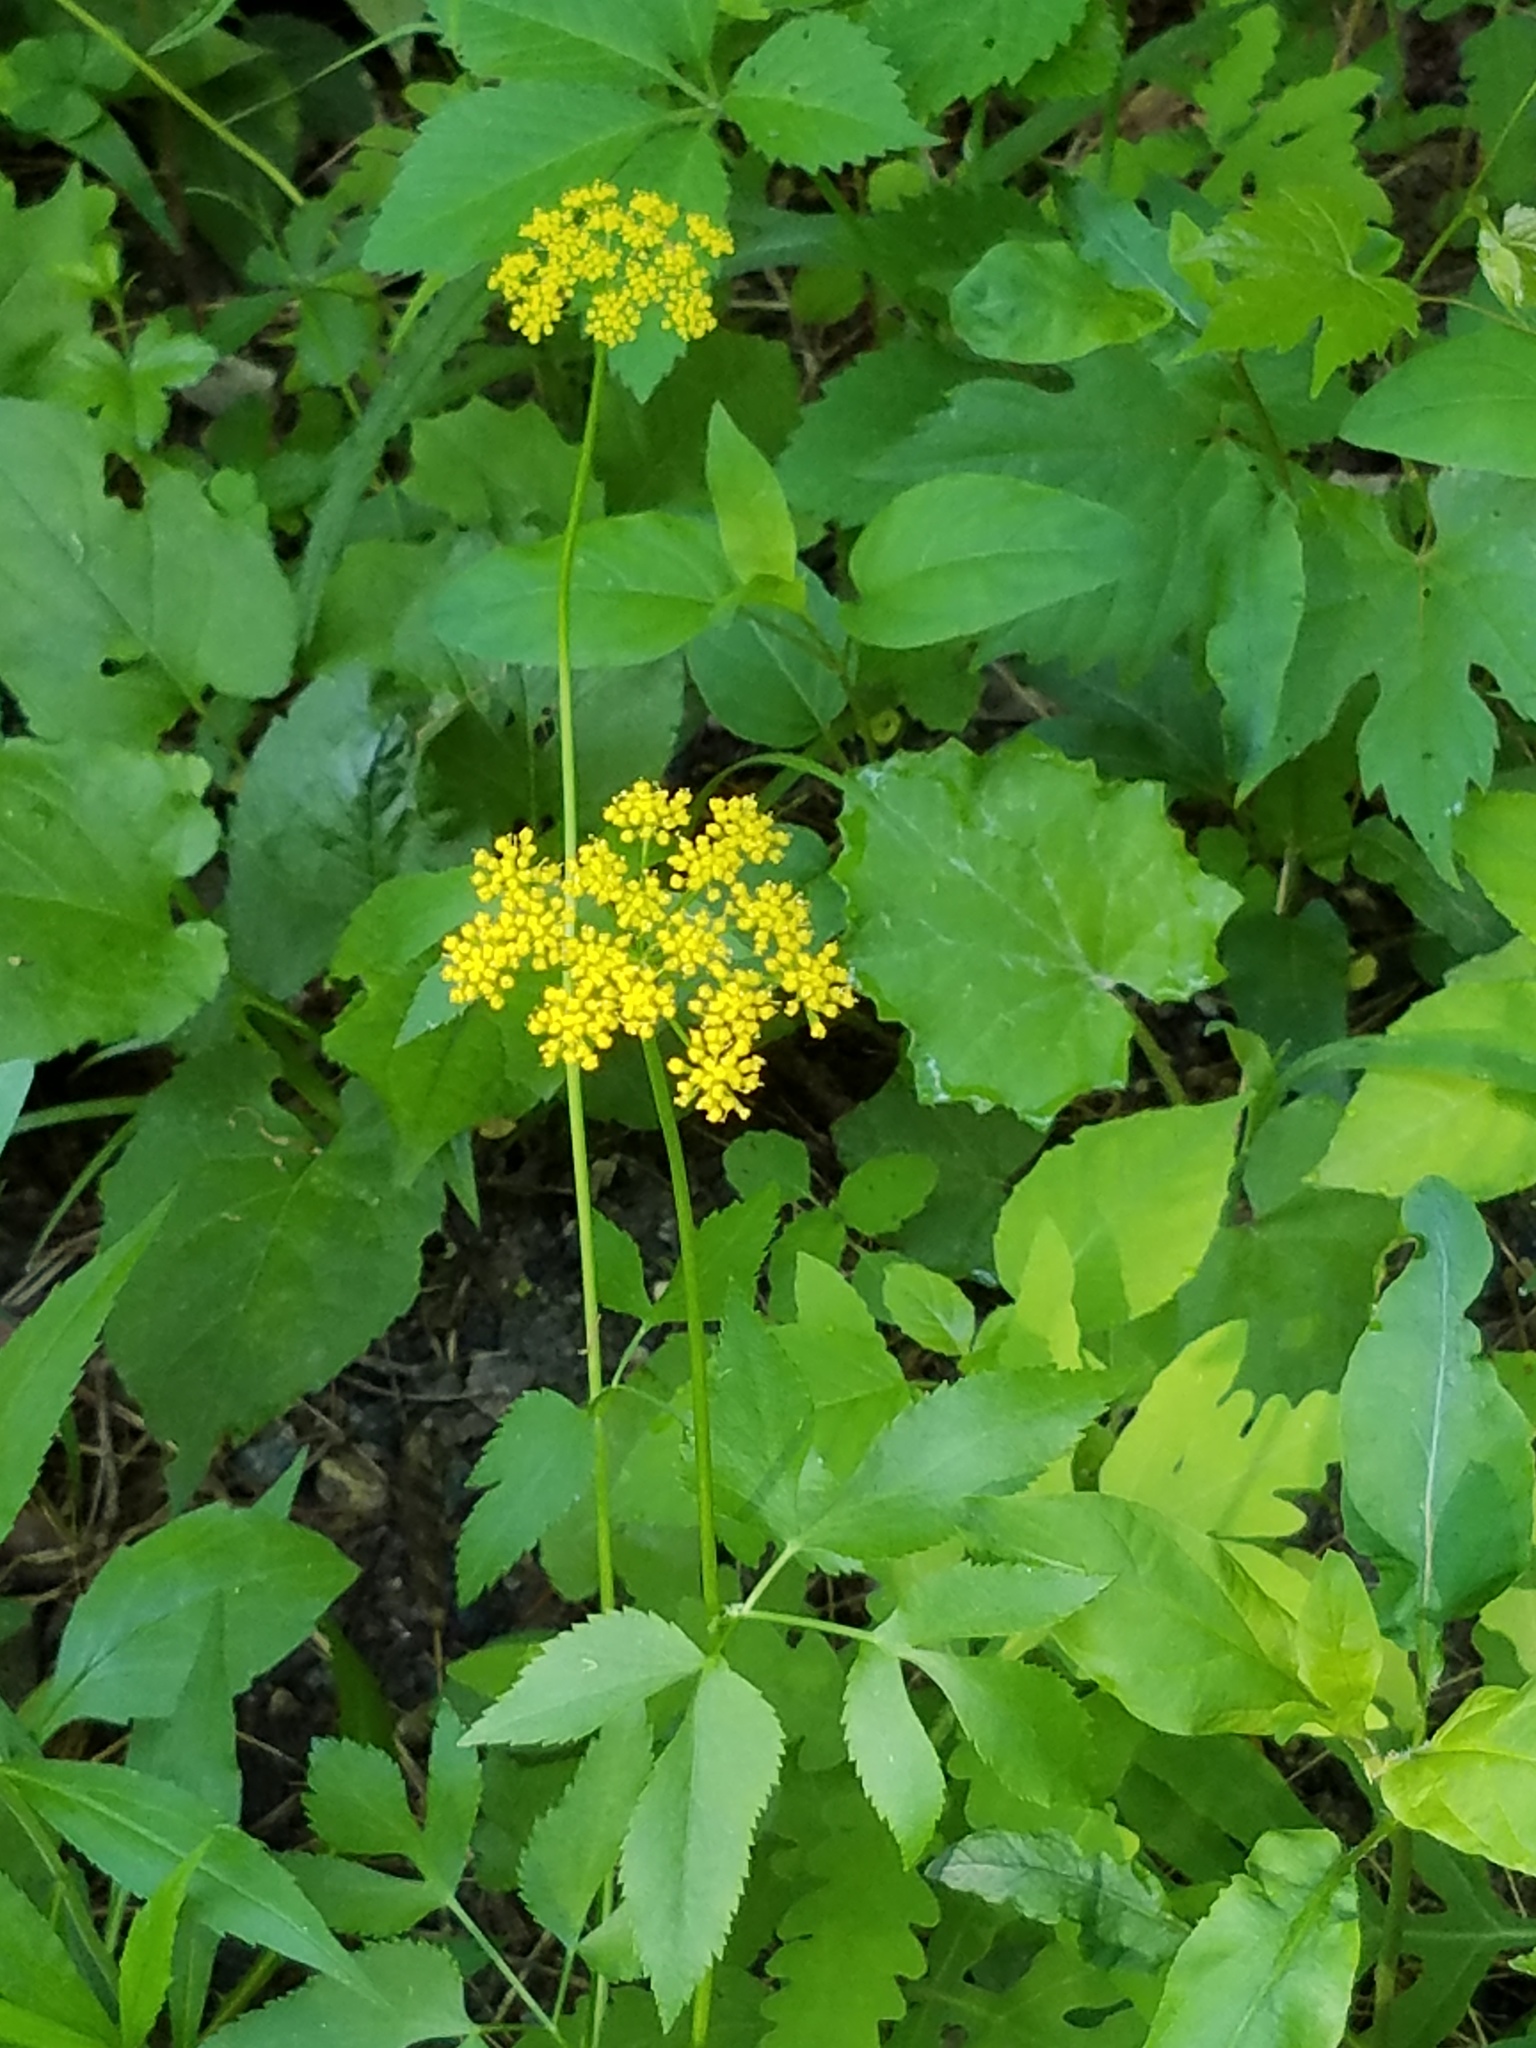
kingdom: Plantae
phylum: Tracheophyta
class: Magnoliopsida
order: Apiales
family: Apiaceae
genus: Zizia
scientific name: Zizia aurea
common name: Golden alexanders
